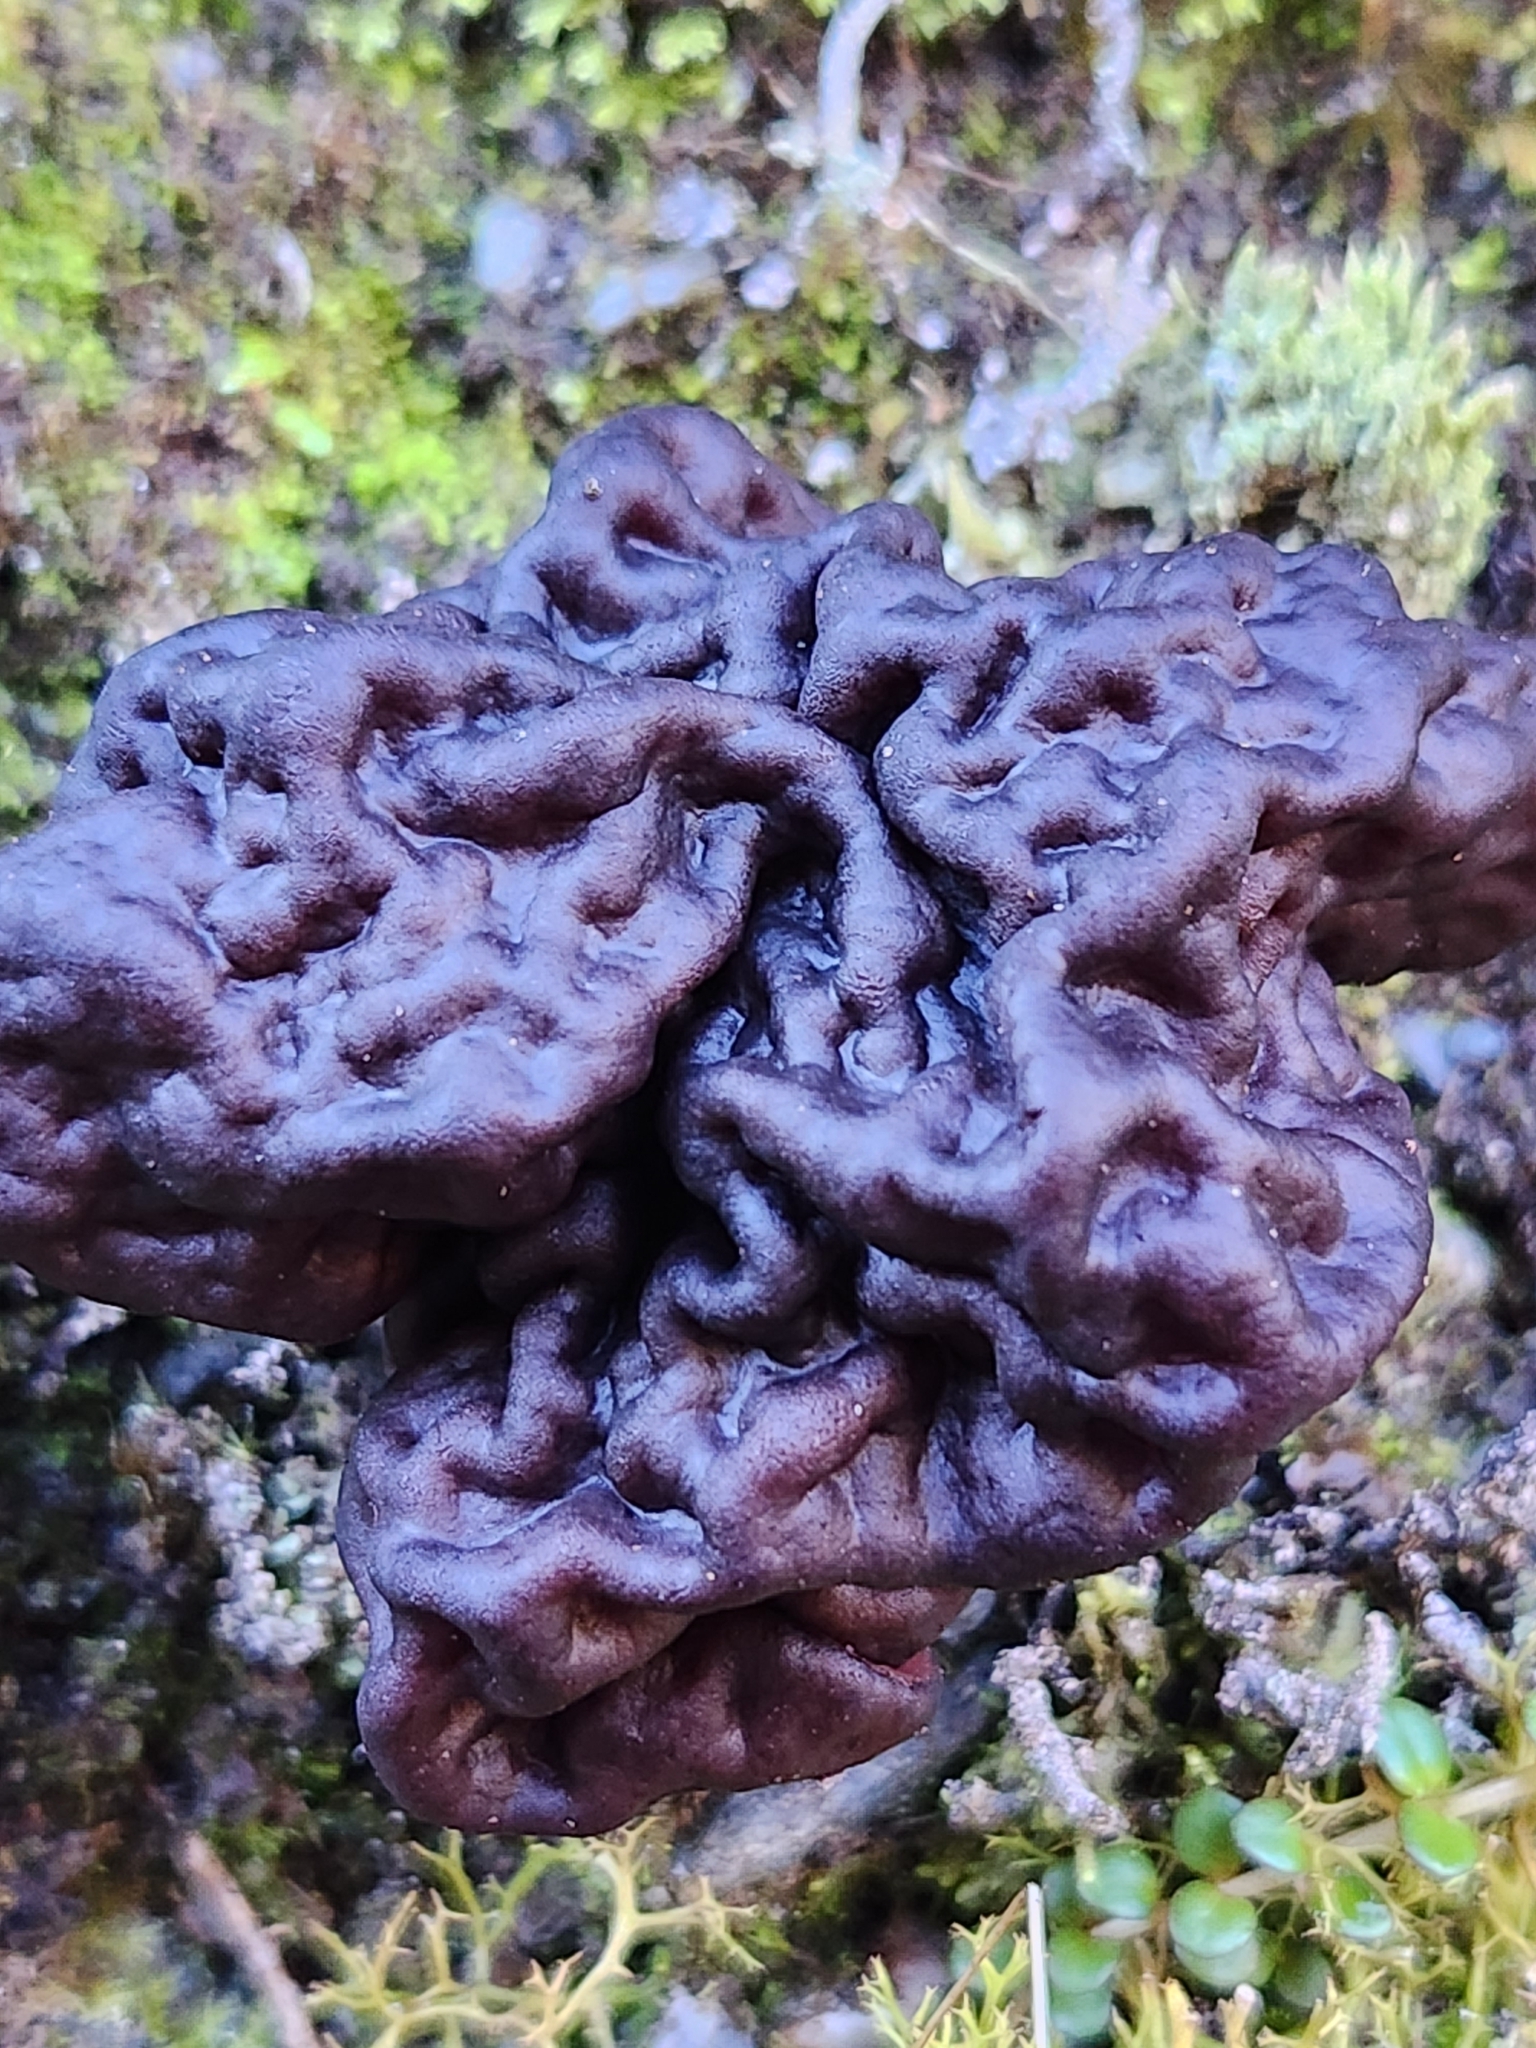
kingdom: Fungi
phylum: Ascomycota
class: Pezizomycetes
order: Pezizales
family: Discinaceae
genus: Gyromitra
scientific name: Gyromitra tasmanica
